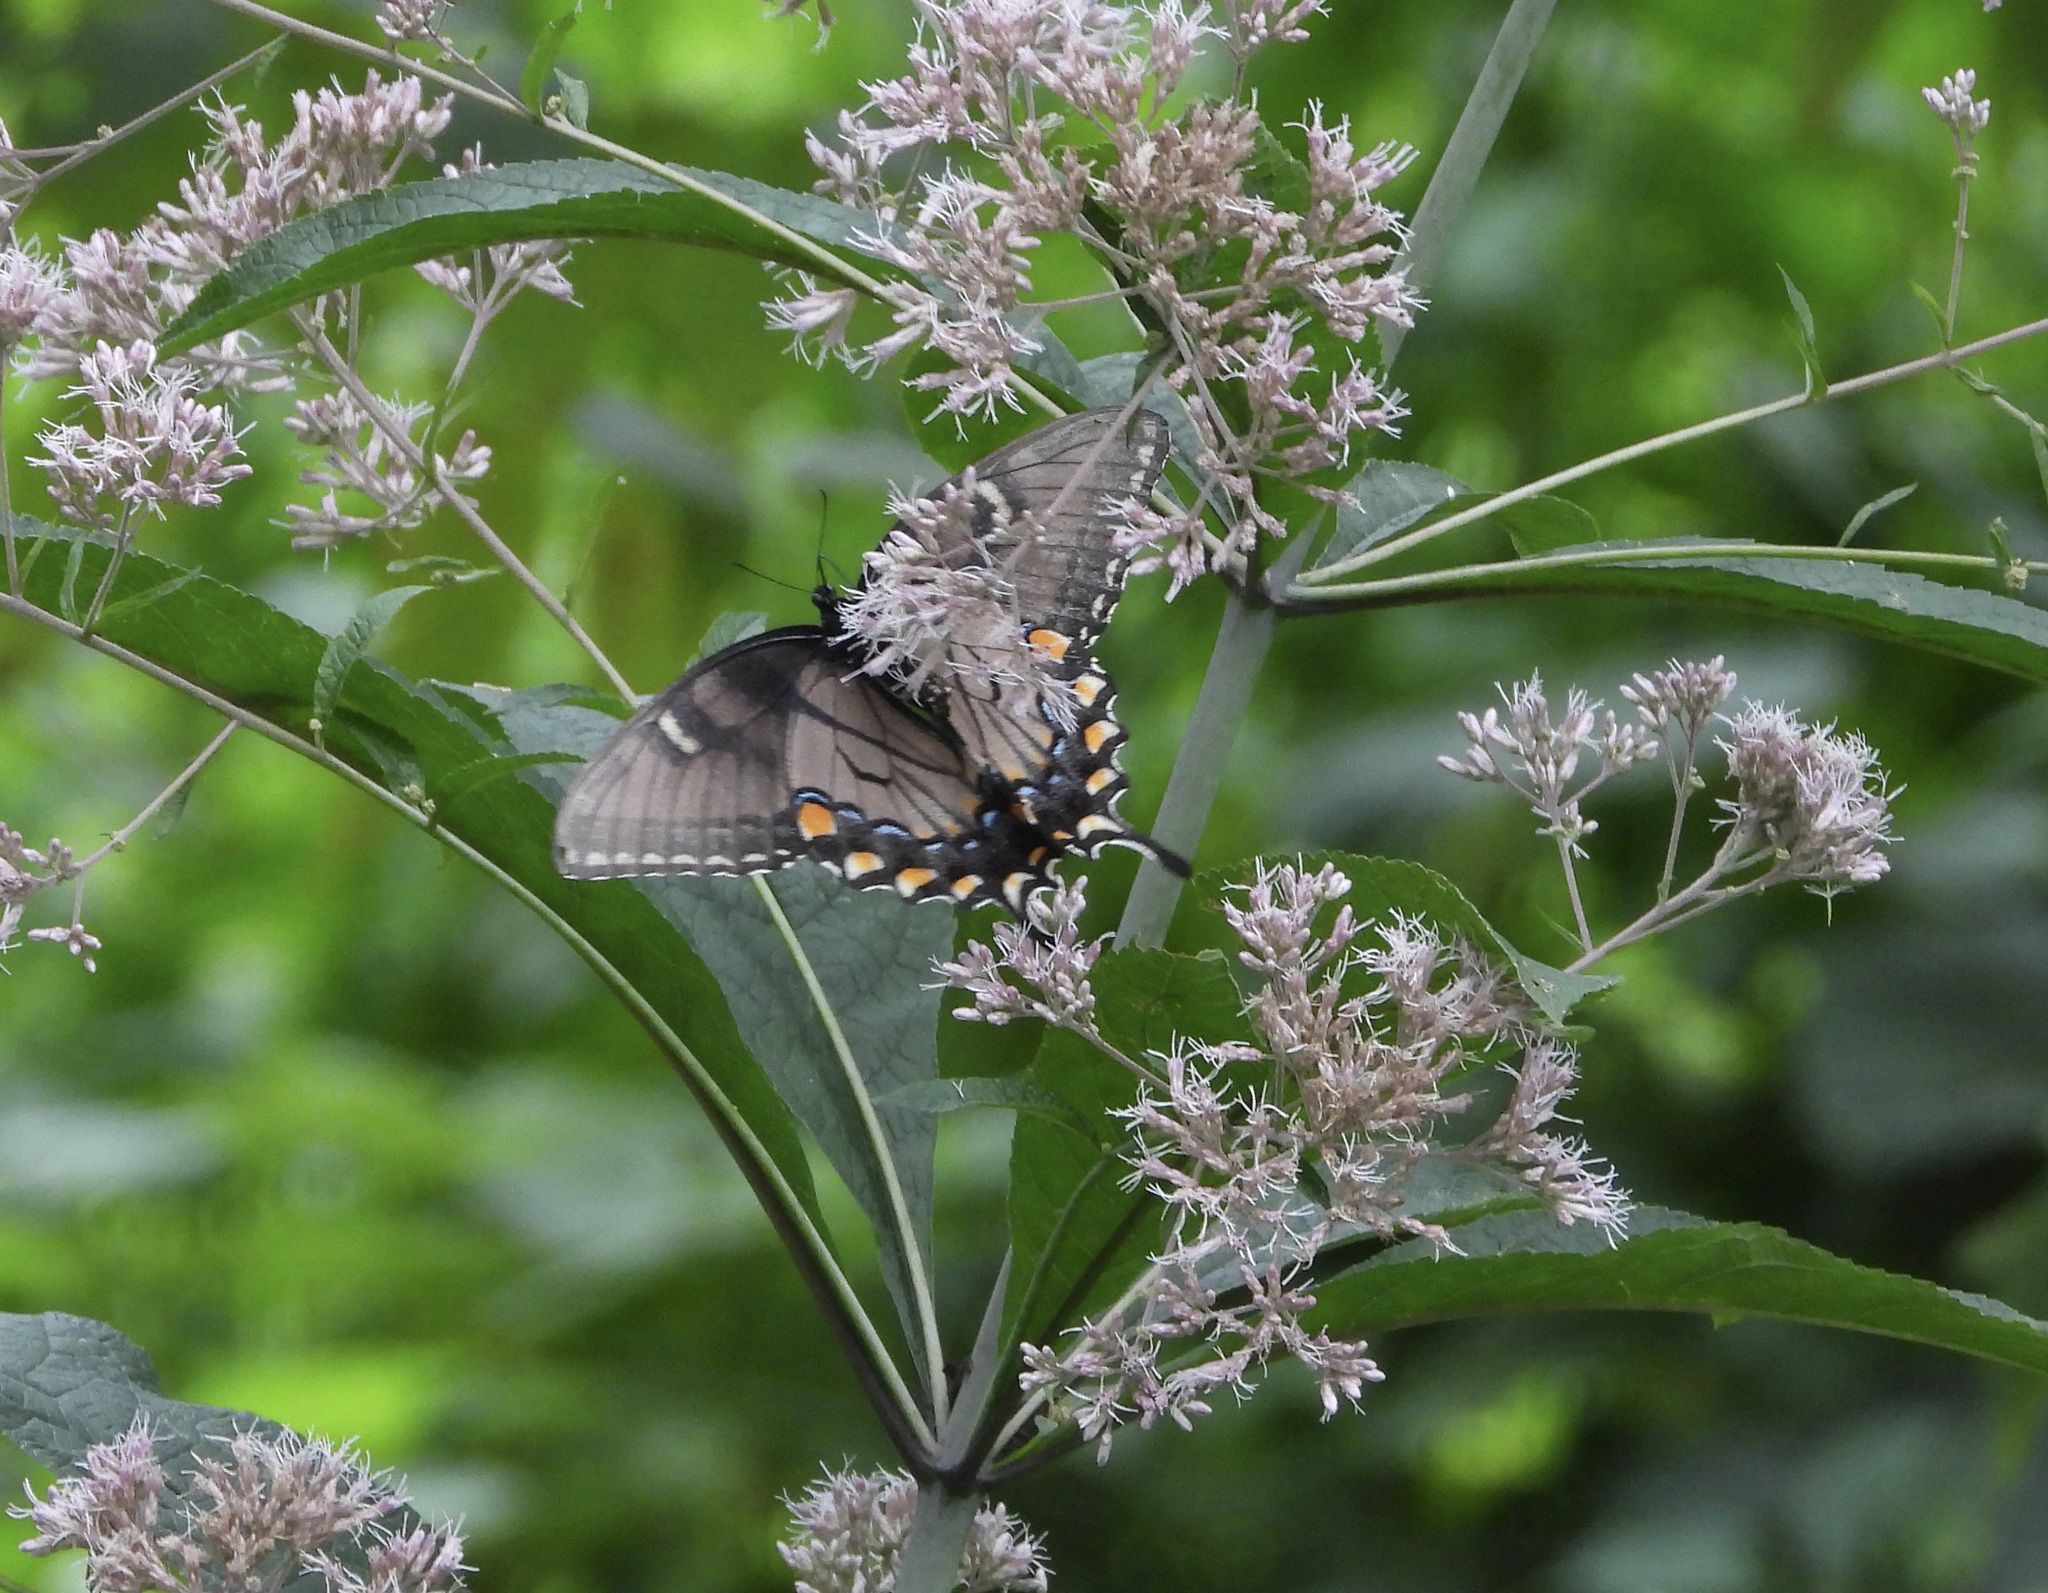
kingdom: Animalia
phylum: Arthropoda
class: Insecta
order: Lepidoptera
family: Papilionidae
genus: Papilio
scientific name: Papilio glaucus
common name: Tiger swallowtail
